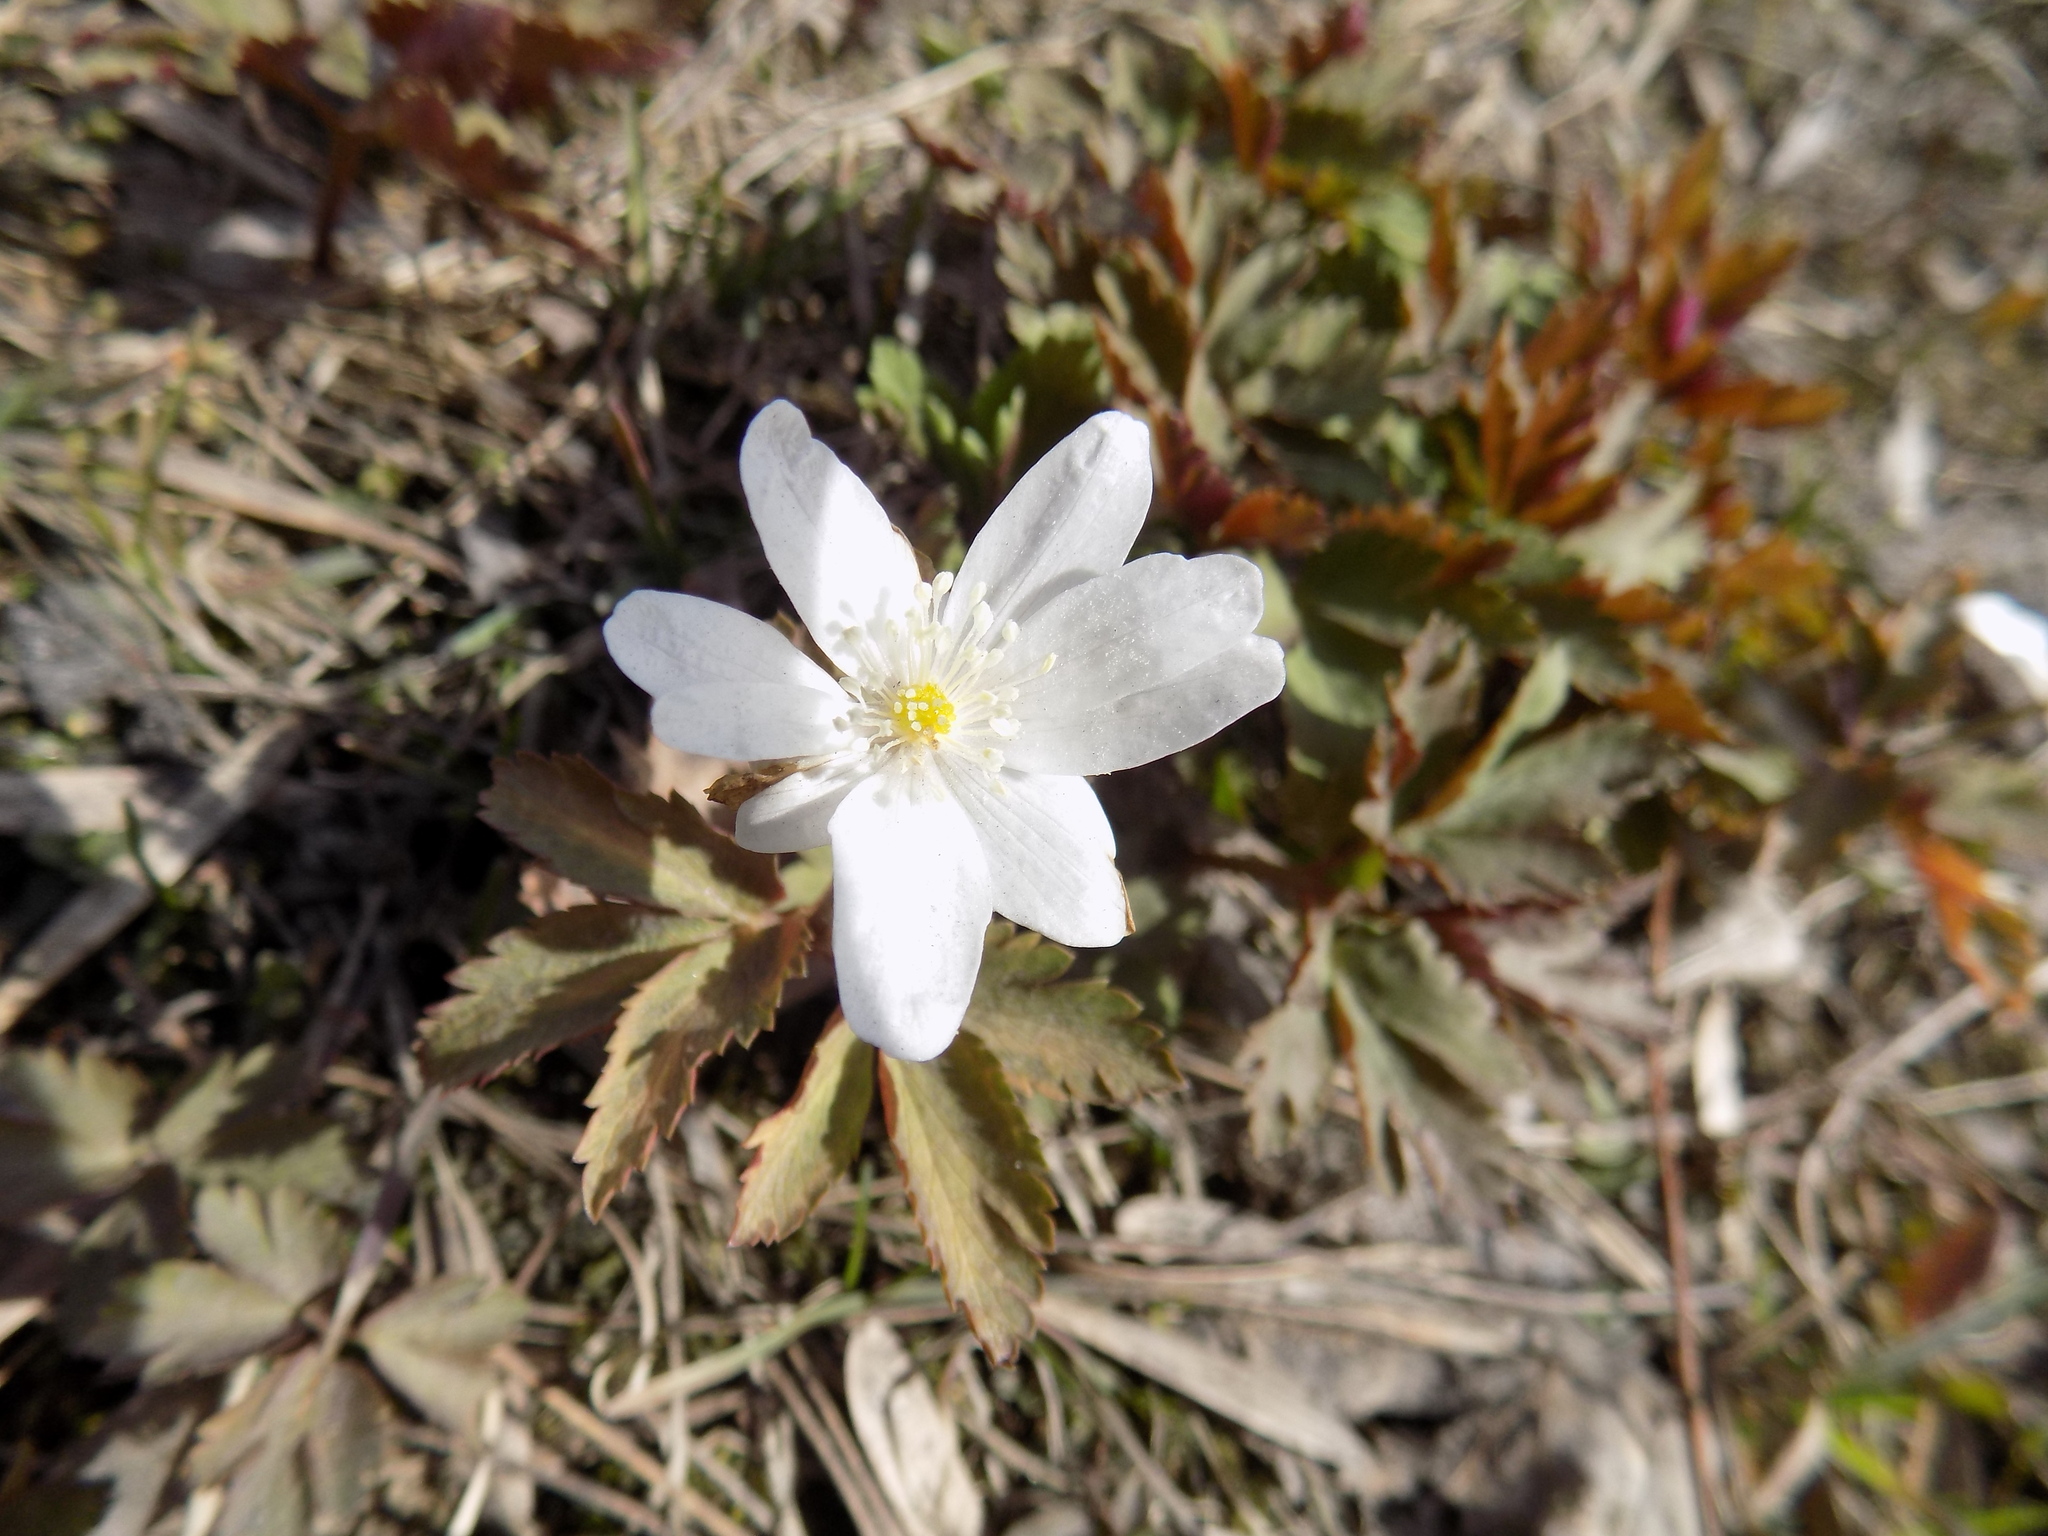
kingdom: Plantae
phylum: Tracheophyta
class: Magnoliopsida
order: Ranunculales
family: Ranunculaceae
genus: Anemone
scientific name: Anemone altaica
